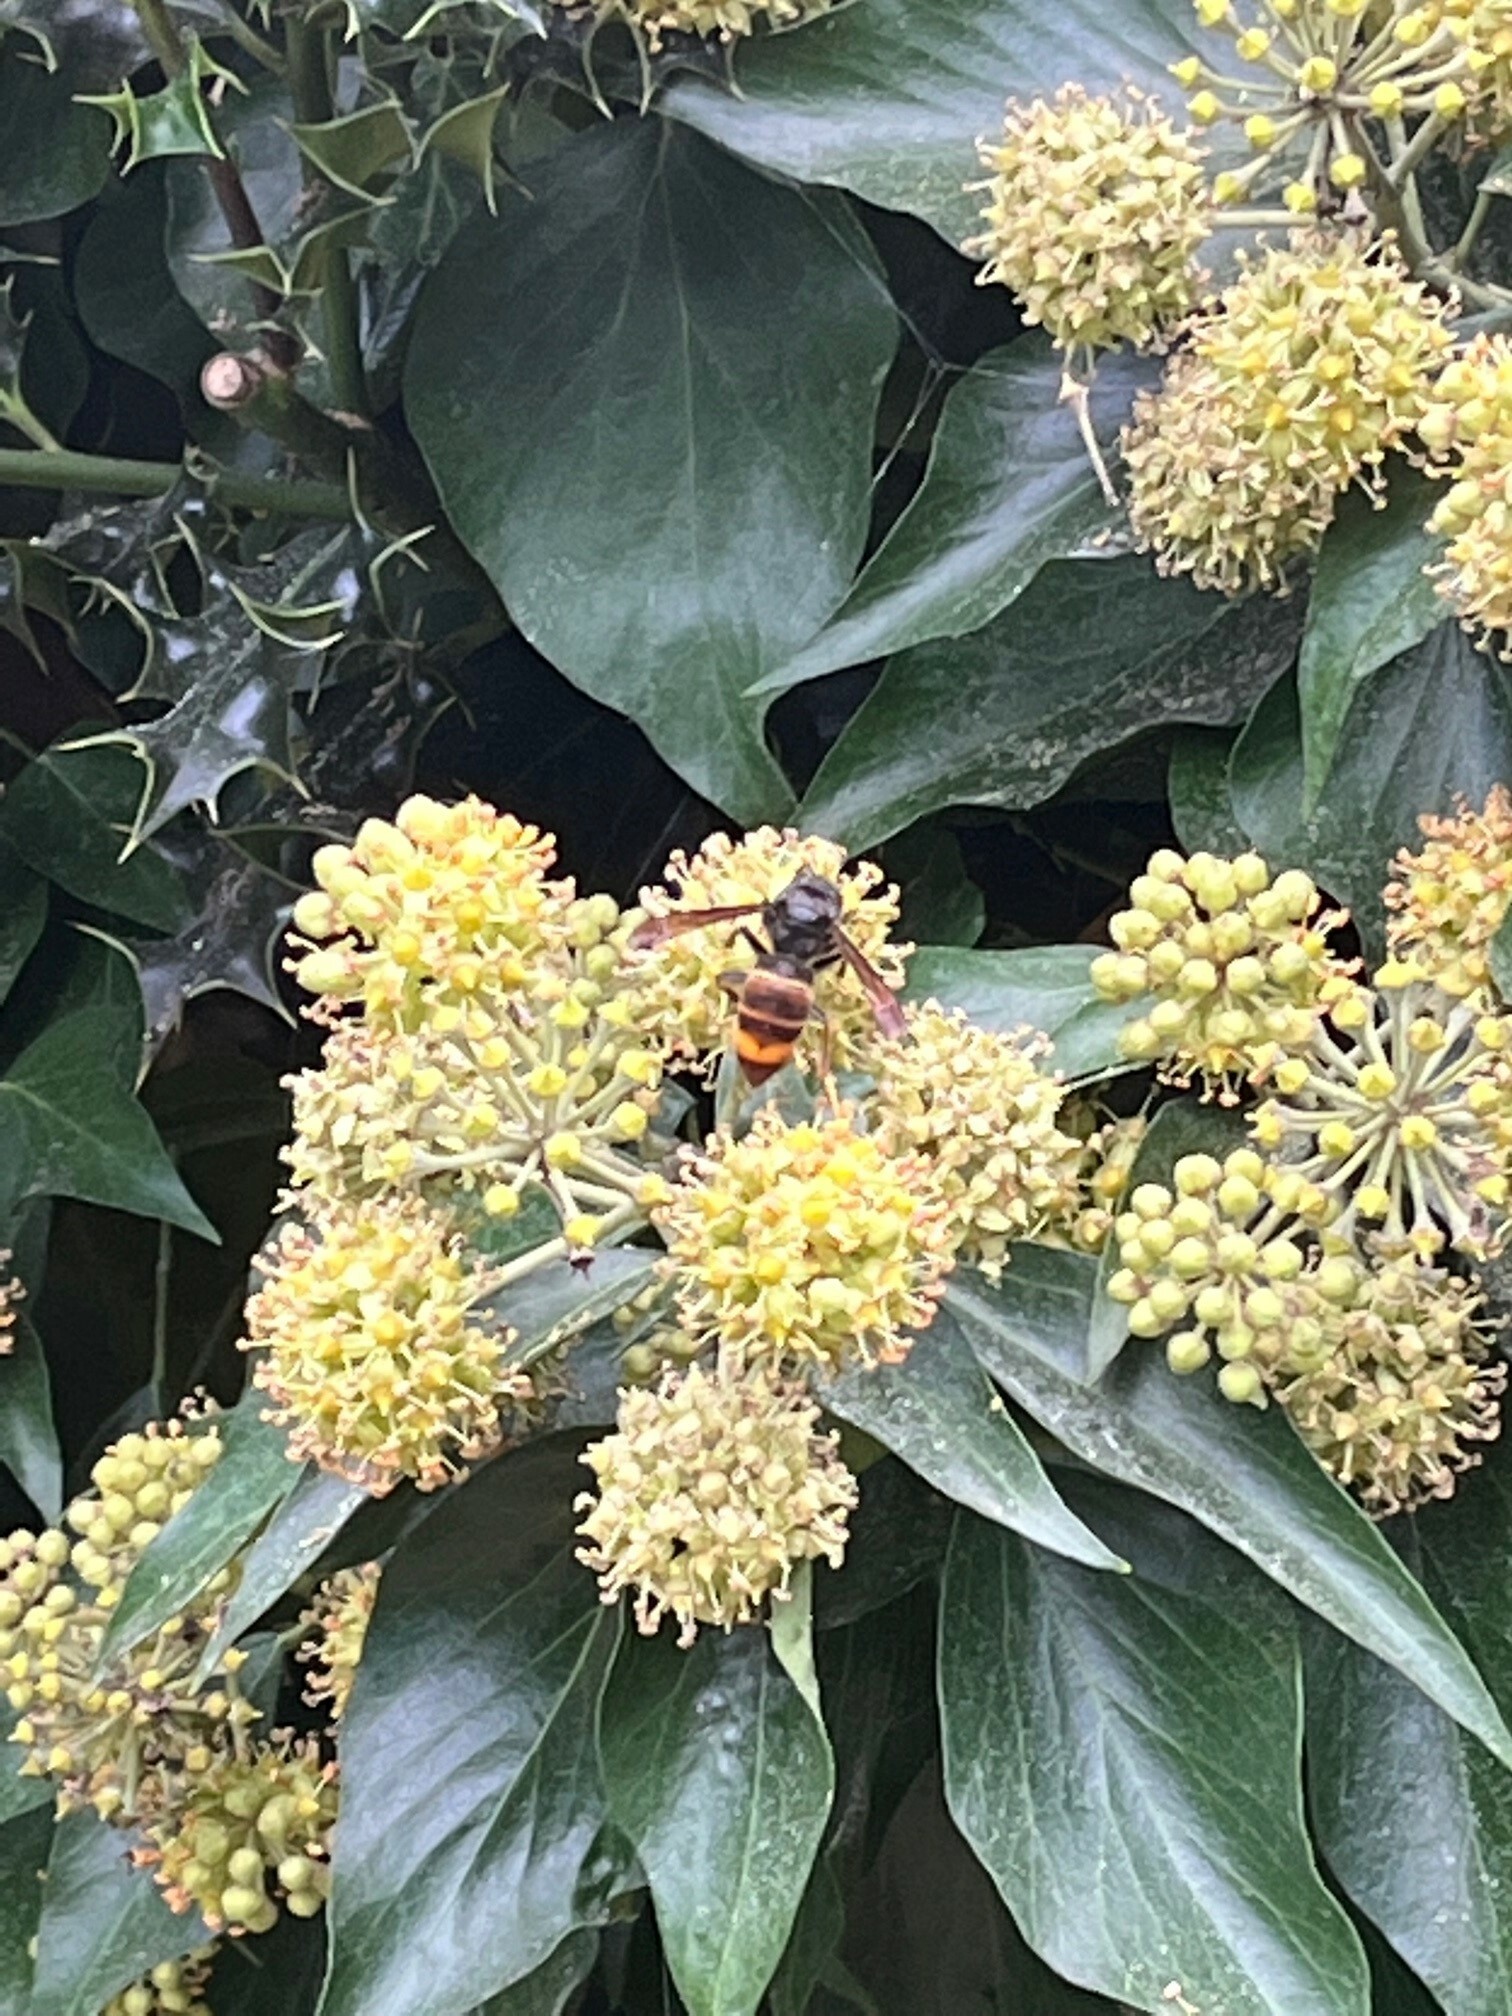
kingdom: Animalia
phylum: Arthropoda
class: Insecta
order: Hymenoptera
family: Vespidae
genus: Vespa
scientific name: Vespa velutina
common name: Asian hornet
